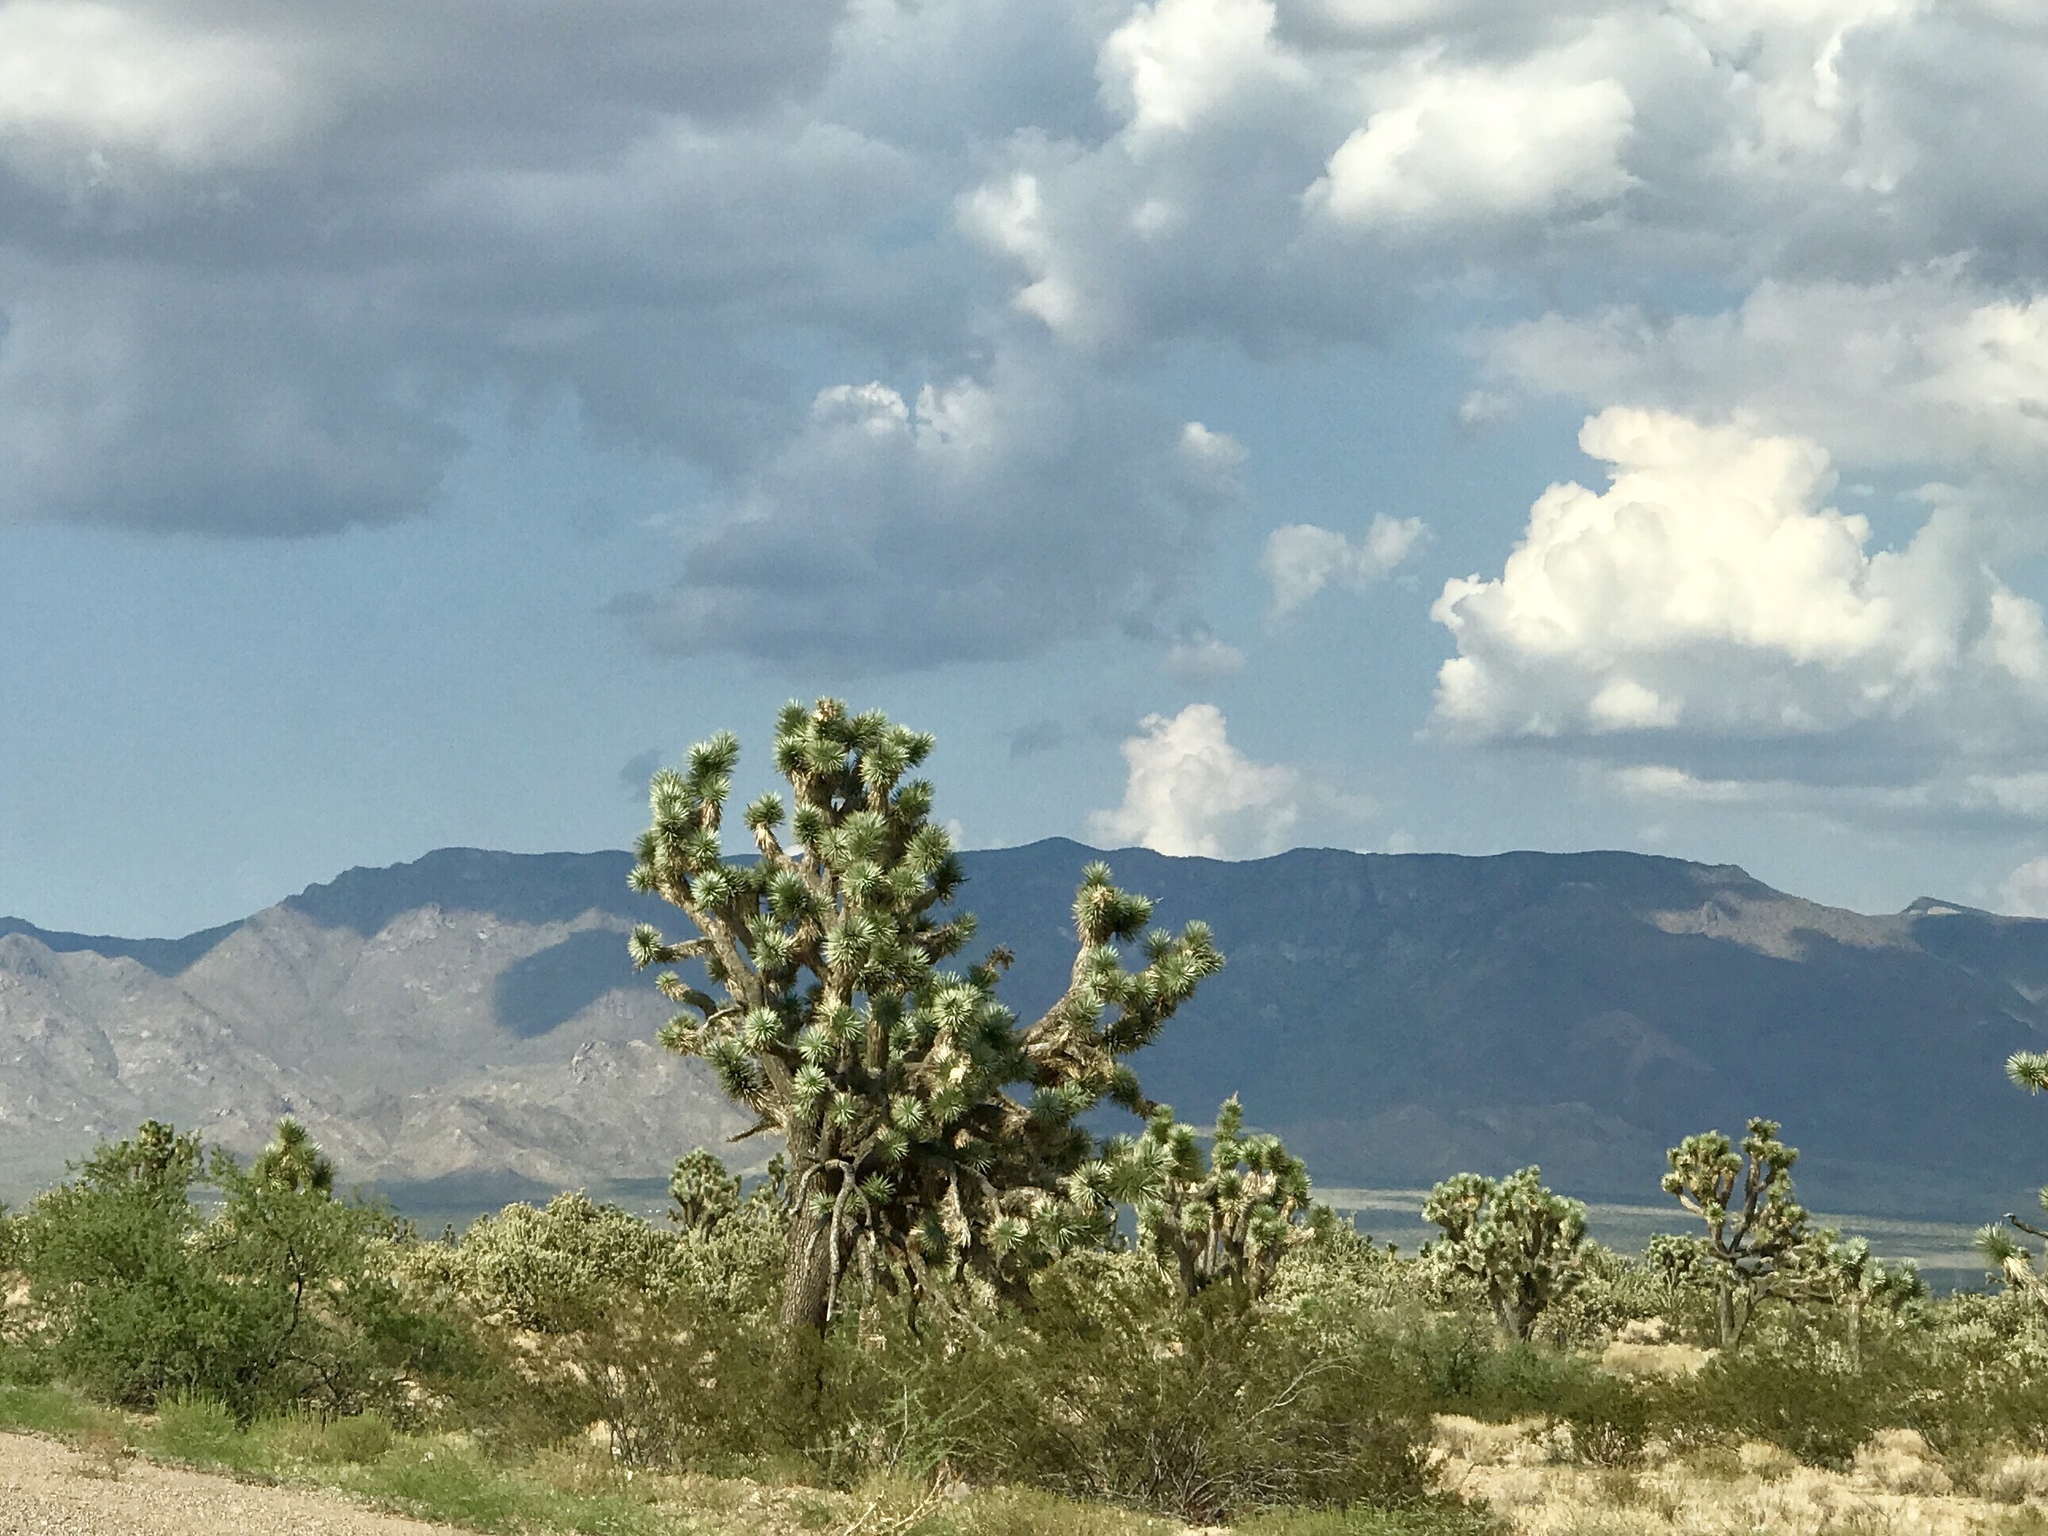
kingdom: Plantae
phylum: Tracheophyta
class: Liliopsida
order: Asparagales
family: Asparagaceae
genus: Yucca
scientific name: Yucca brevifolia
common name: Joshua tree
